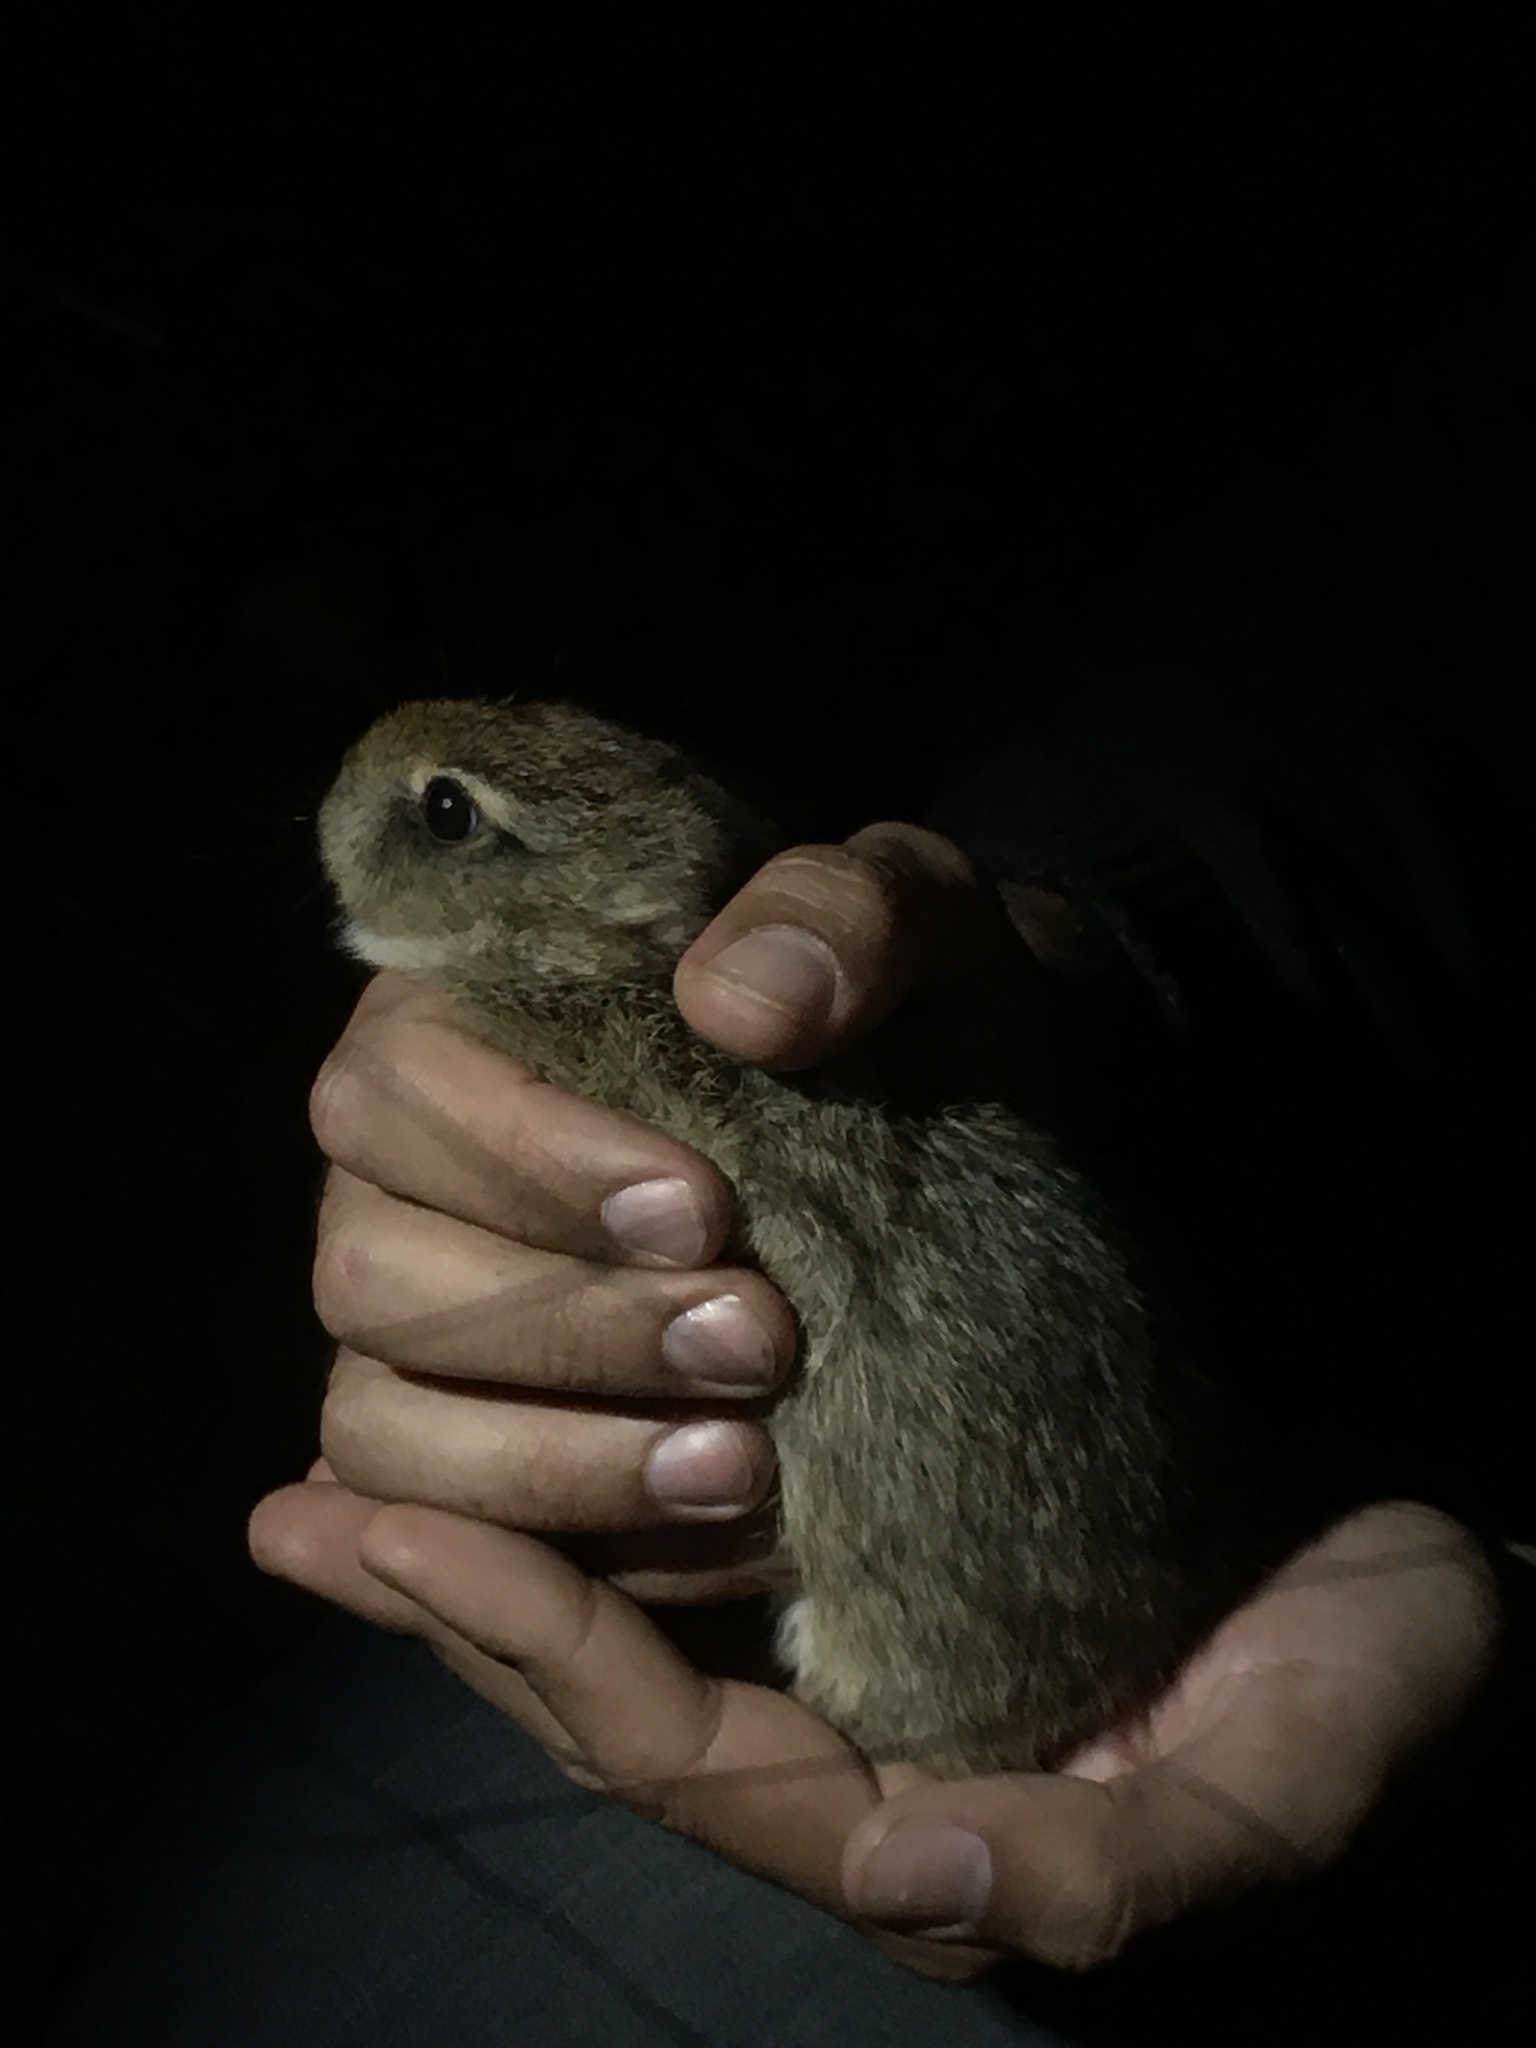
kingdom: Animalia
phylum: Chordata
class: Mammalia
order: Lagomorpha
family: Leporidae
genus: Sylvilagus
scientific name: Sylvilagus brasiliensis
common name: Tapeti
